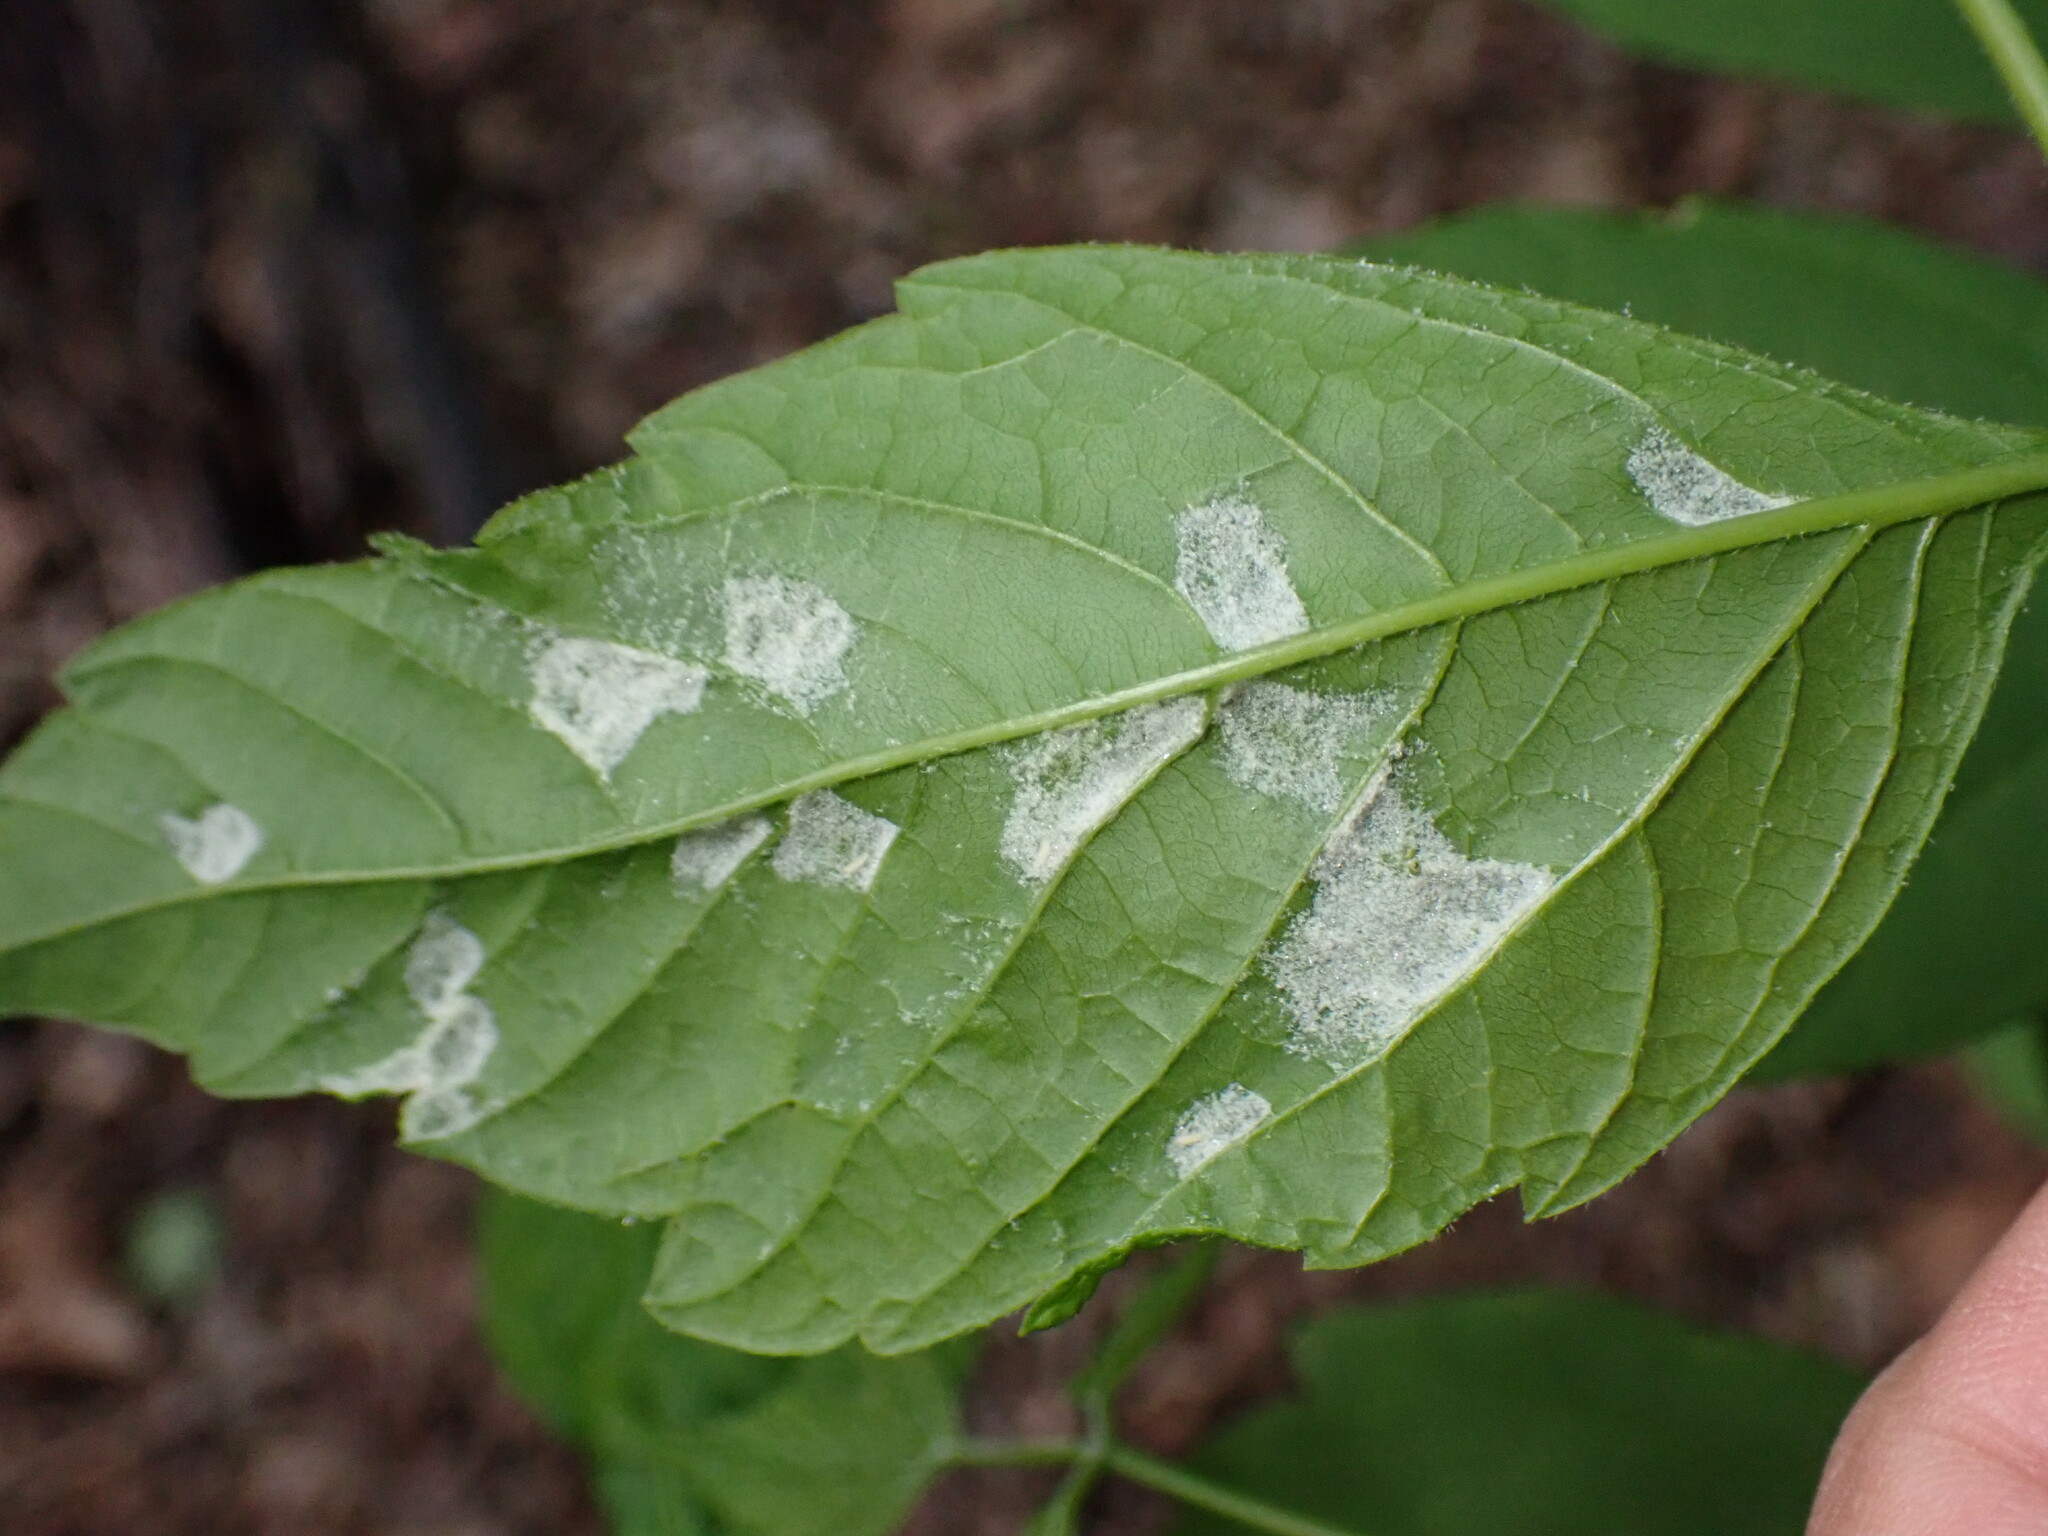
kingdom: Animalia
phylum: Arthropoda
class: Arachnida
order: Trombidiformes
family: Eriophyidae
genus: Aceria
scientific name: Aceria
